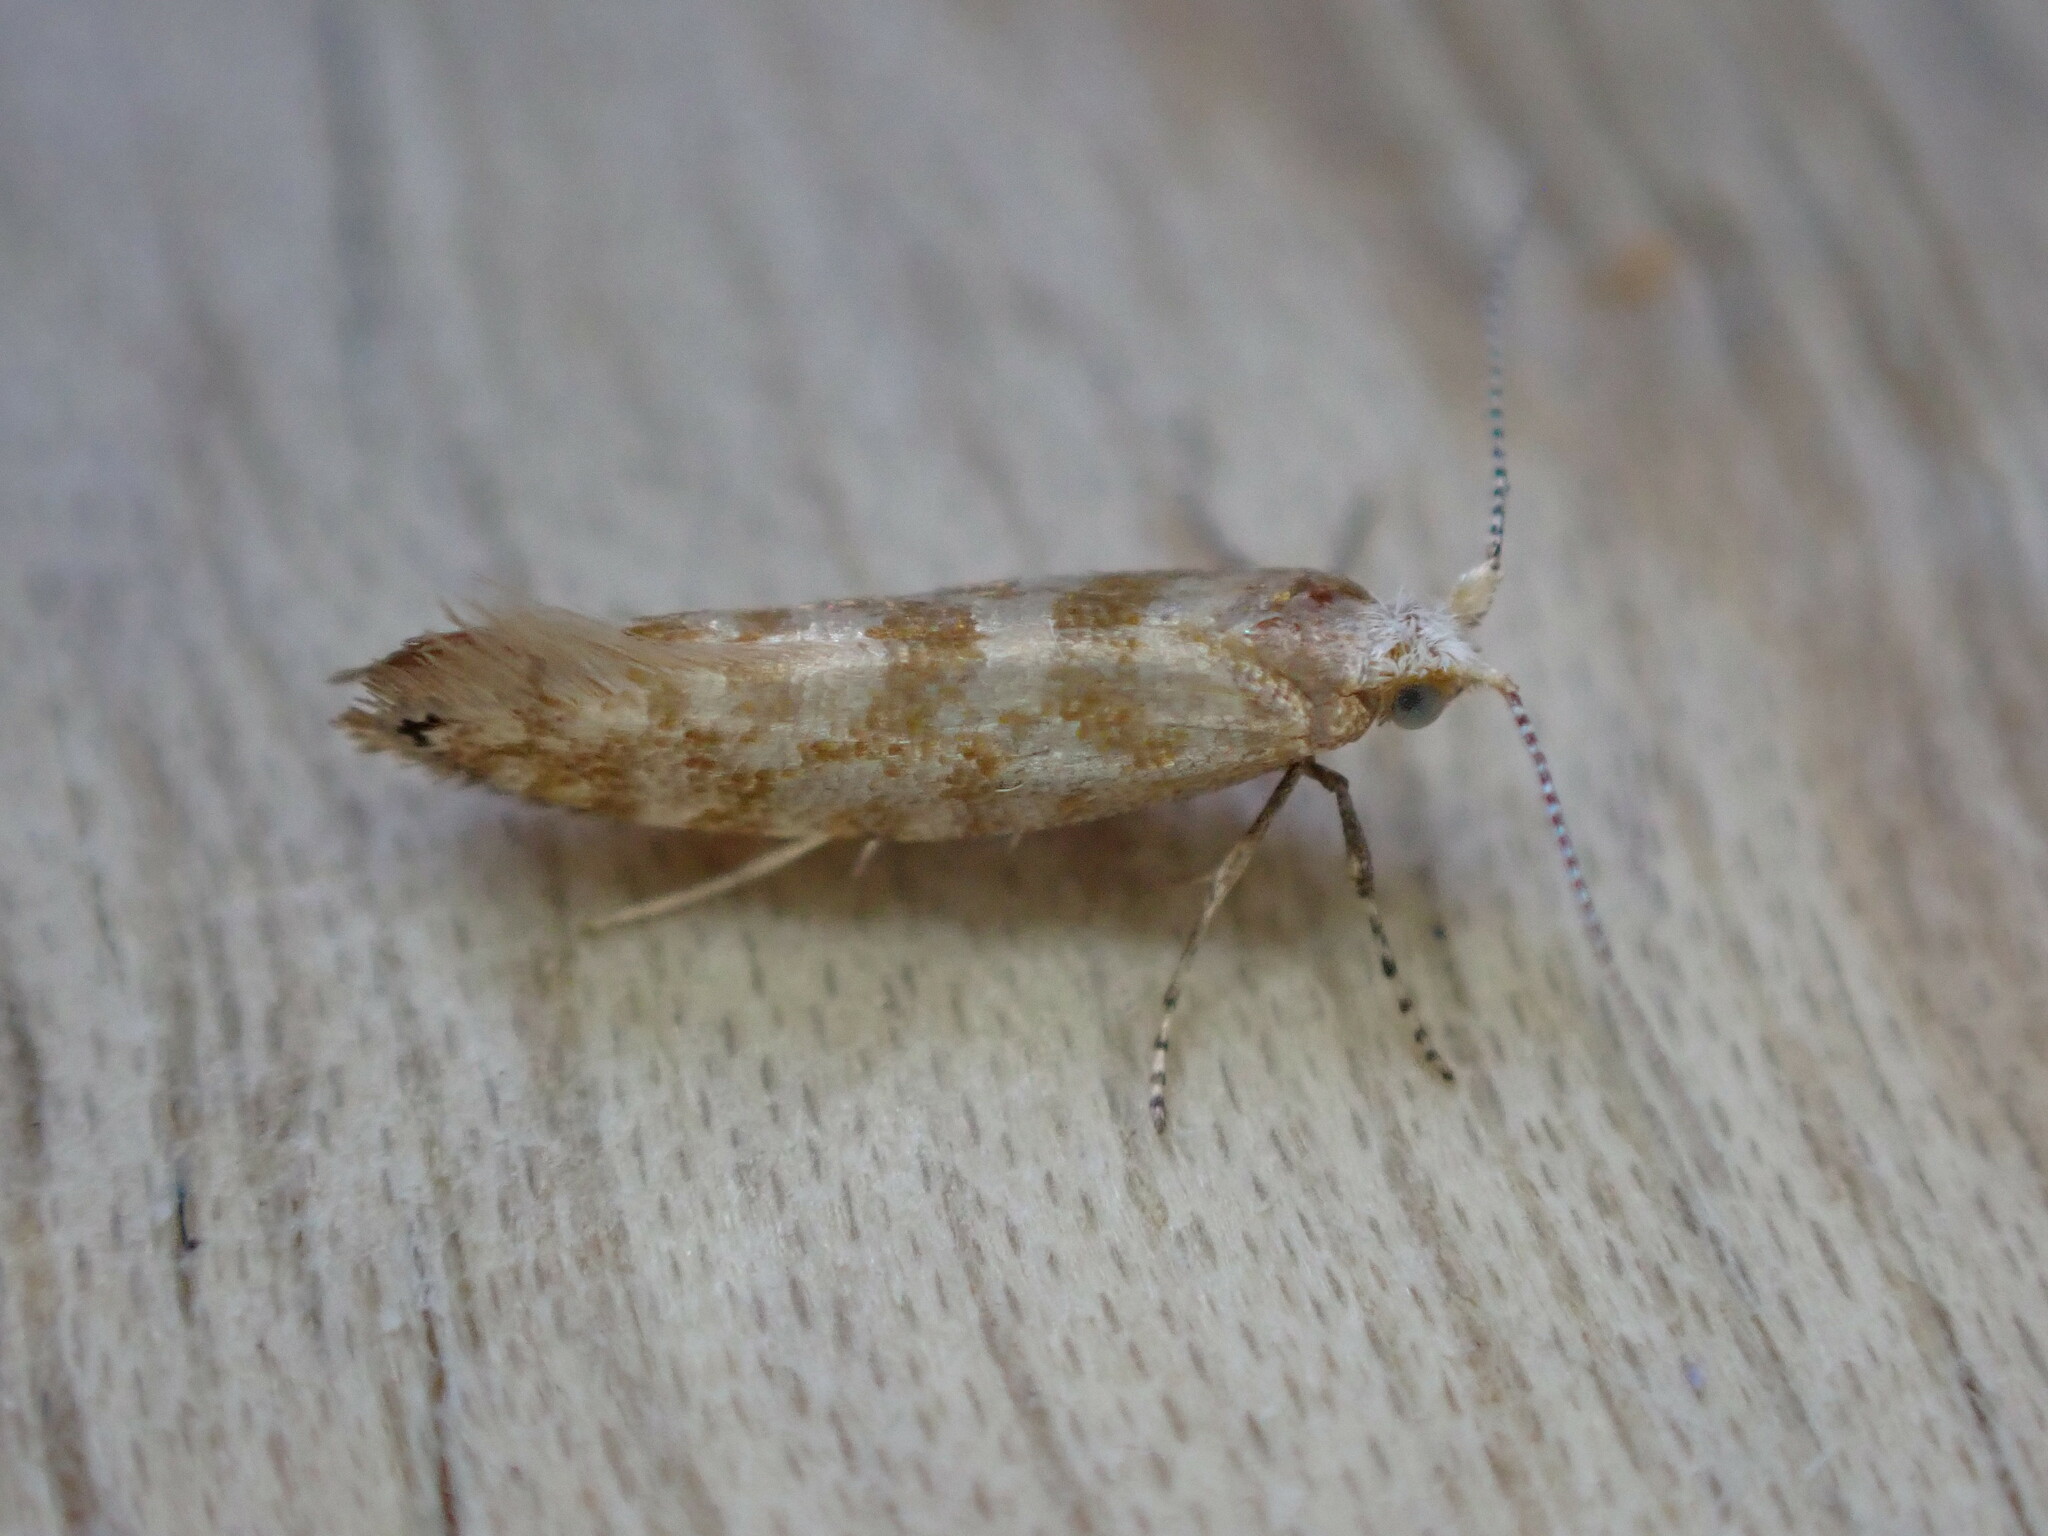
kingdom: Animalia
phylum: Arthropoda
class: Insecta
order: Lepidoptera
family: Argyresthiidae
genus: Argyresthia
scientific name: Argyresthia cupressella
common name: Cypress tip moth
